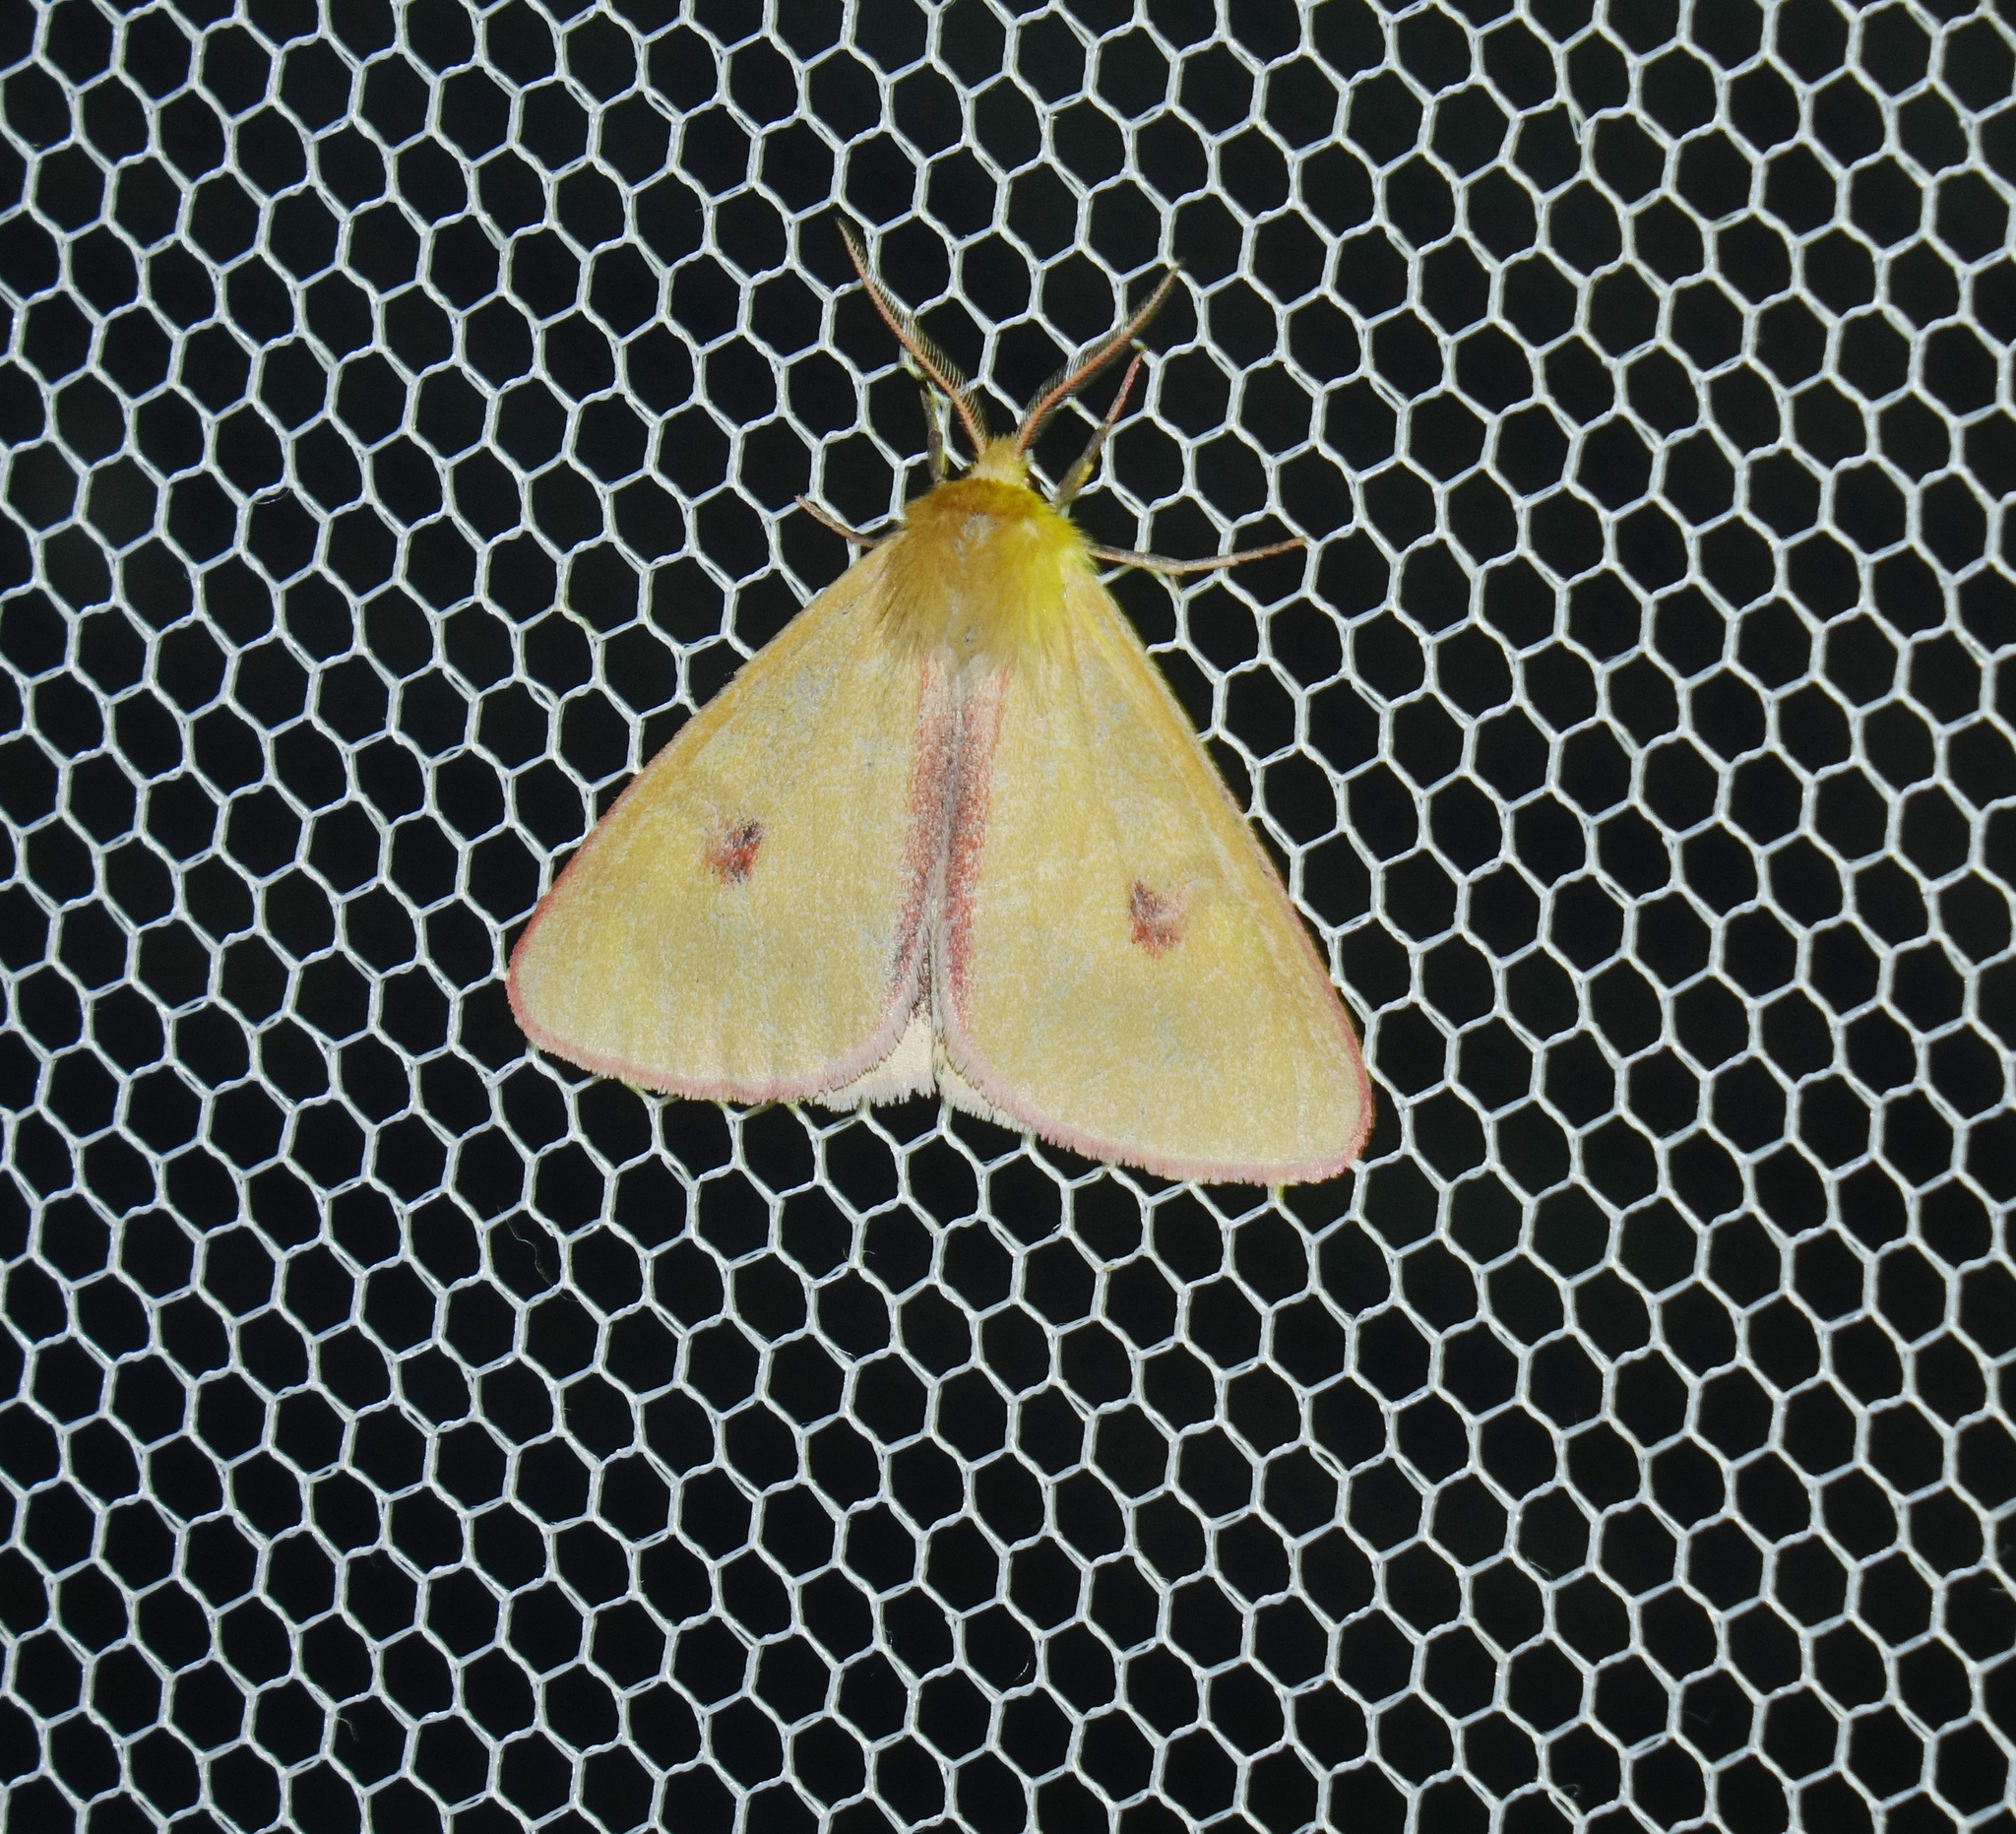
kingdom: Animalia
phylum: Arthropoda
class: Insecta
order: Lepidoptera
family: Erebidae
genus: Diacrisia
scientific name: Diacrisia sannio
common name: Clouded buff
